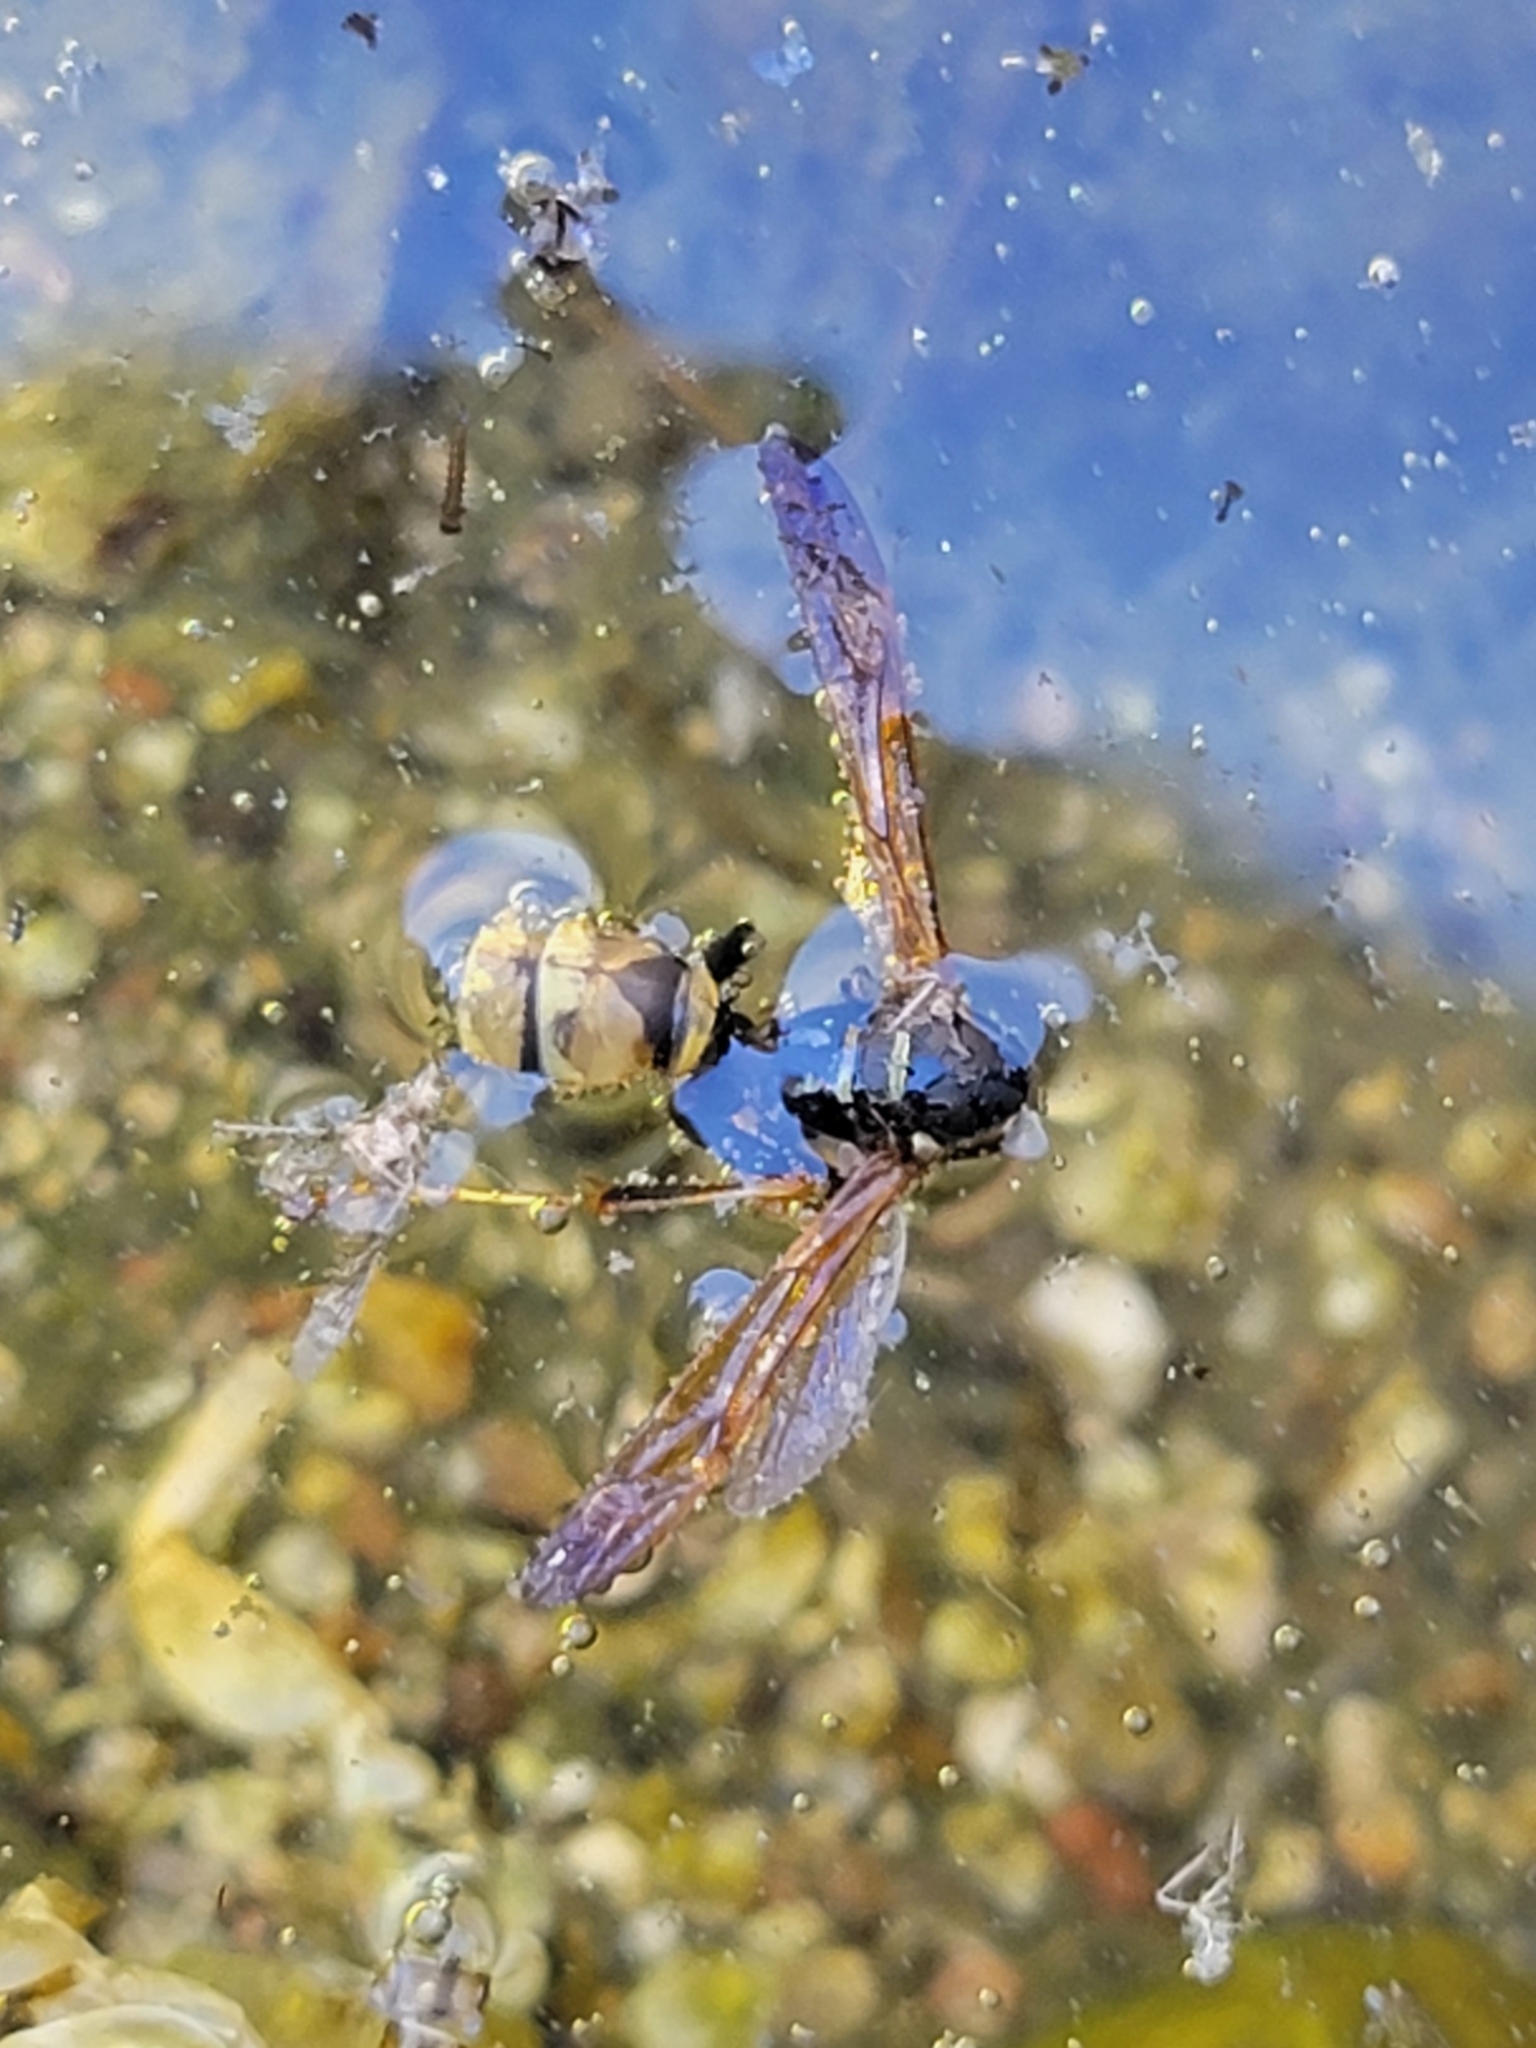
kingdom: Animalia
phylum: Arthropoda
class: Insecta
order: Hymenoptera
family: Eumenidae
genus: Polistes
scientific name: Polistes aurifer
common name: Paper wasp
